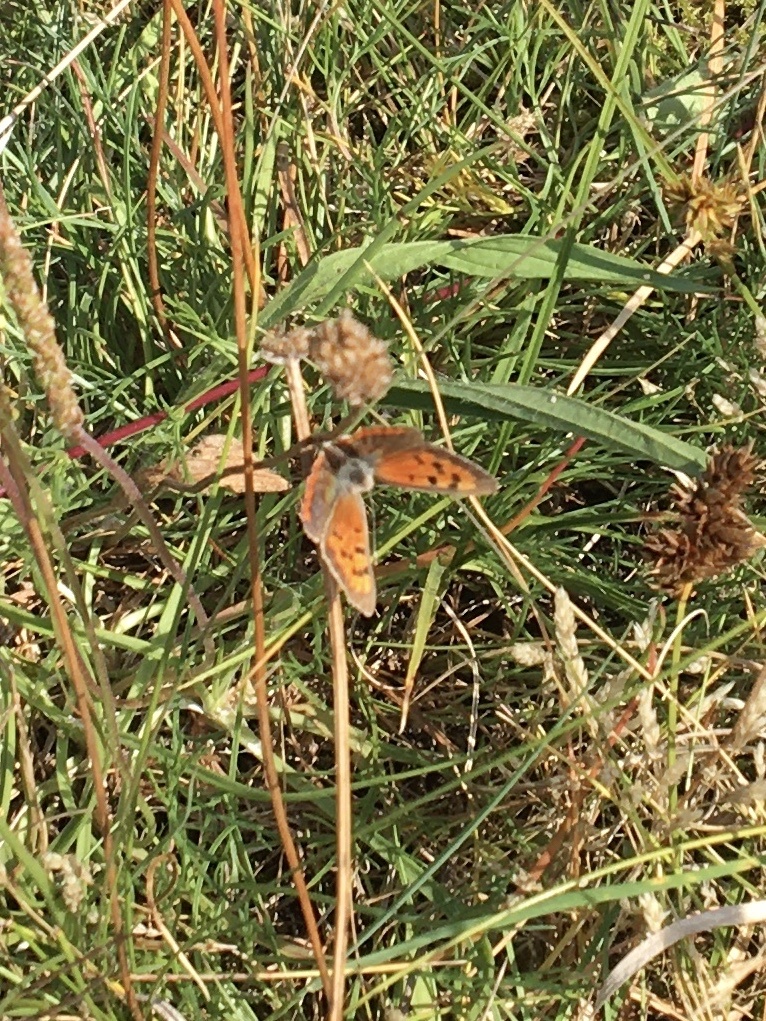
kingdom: Animalia
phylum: Arthropoda
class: Insecta
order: Lepidoptera
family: Lycaenidae
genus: Lycaena
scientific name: Lycaena phlaeas
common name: Small copper
